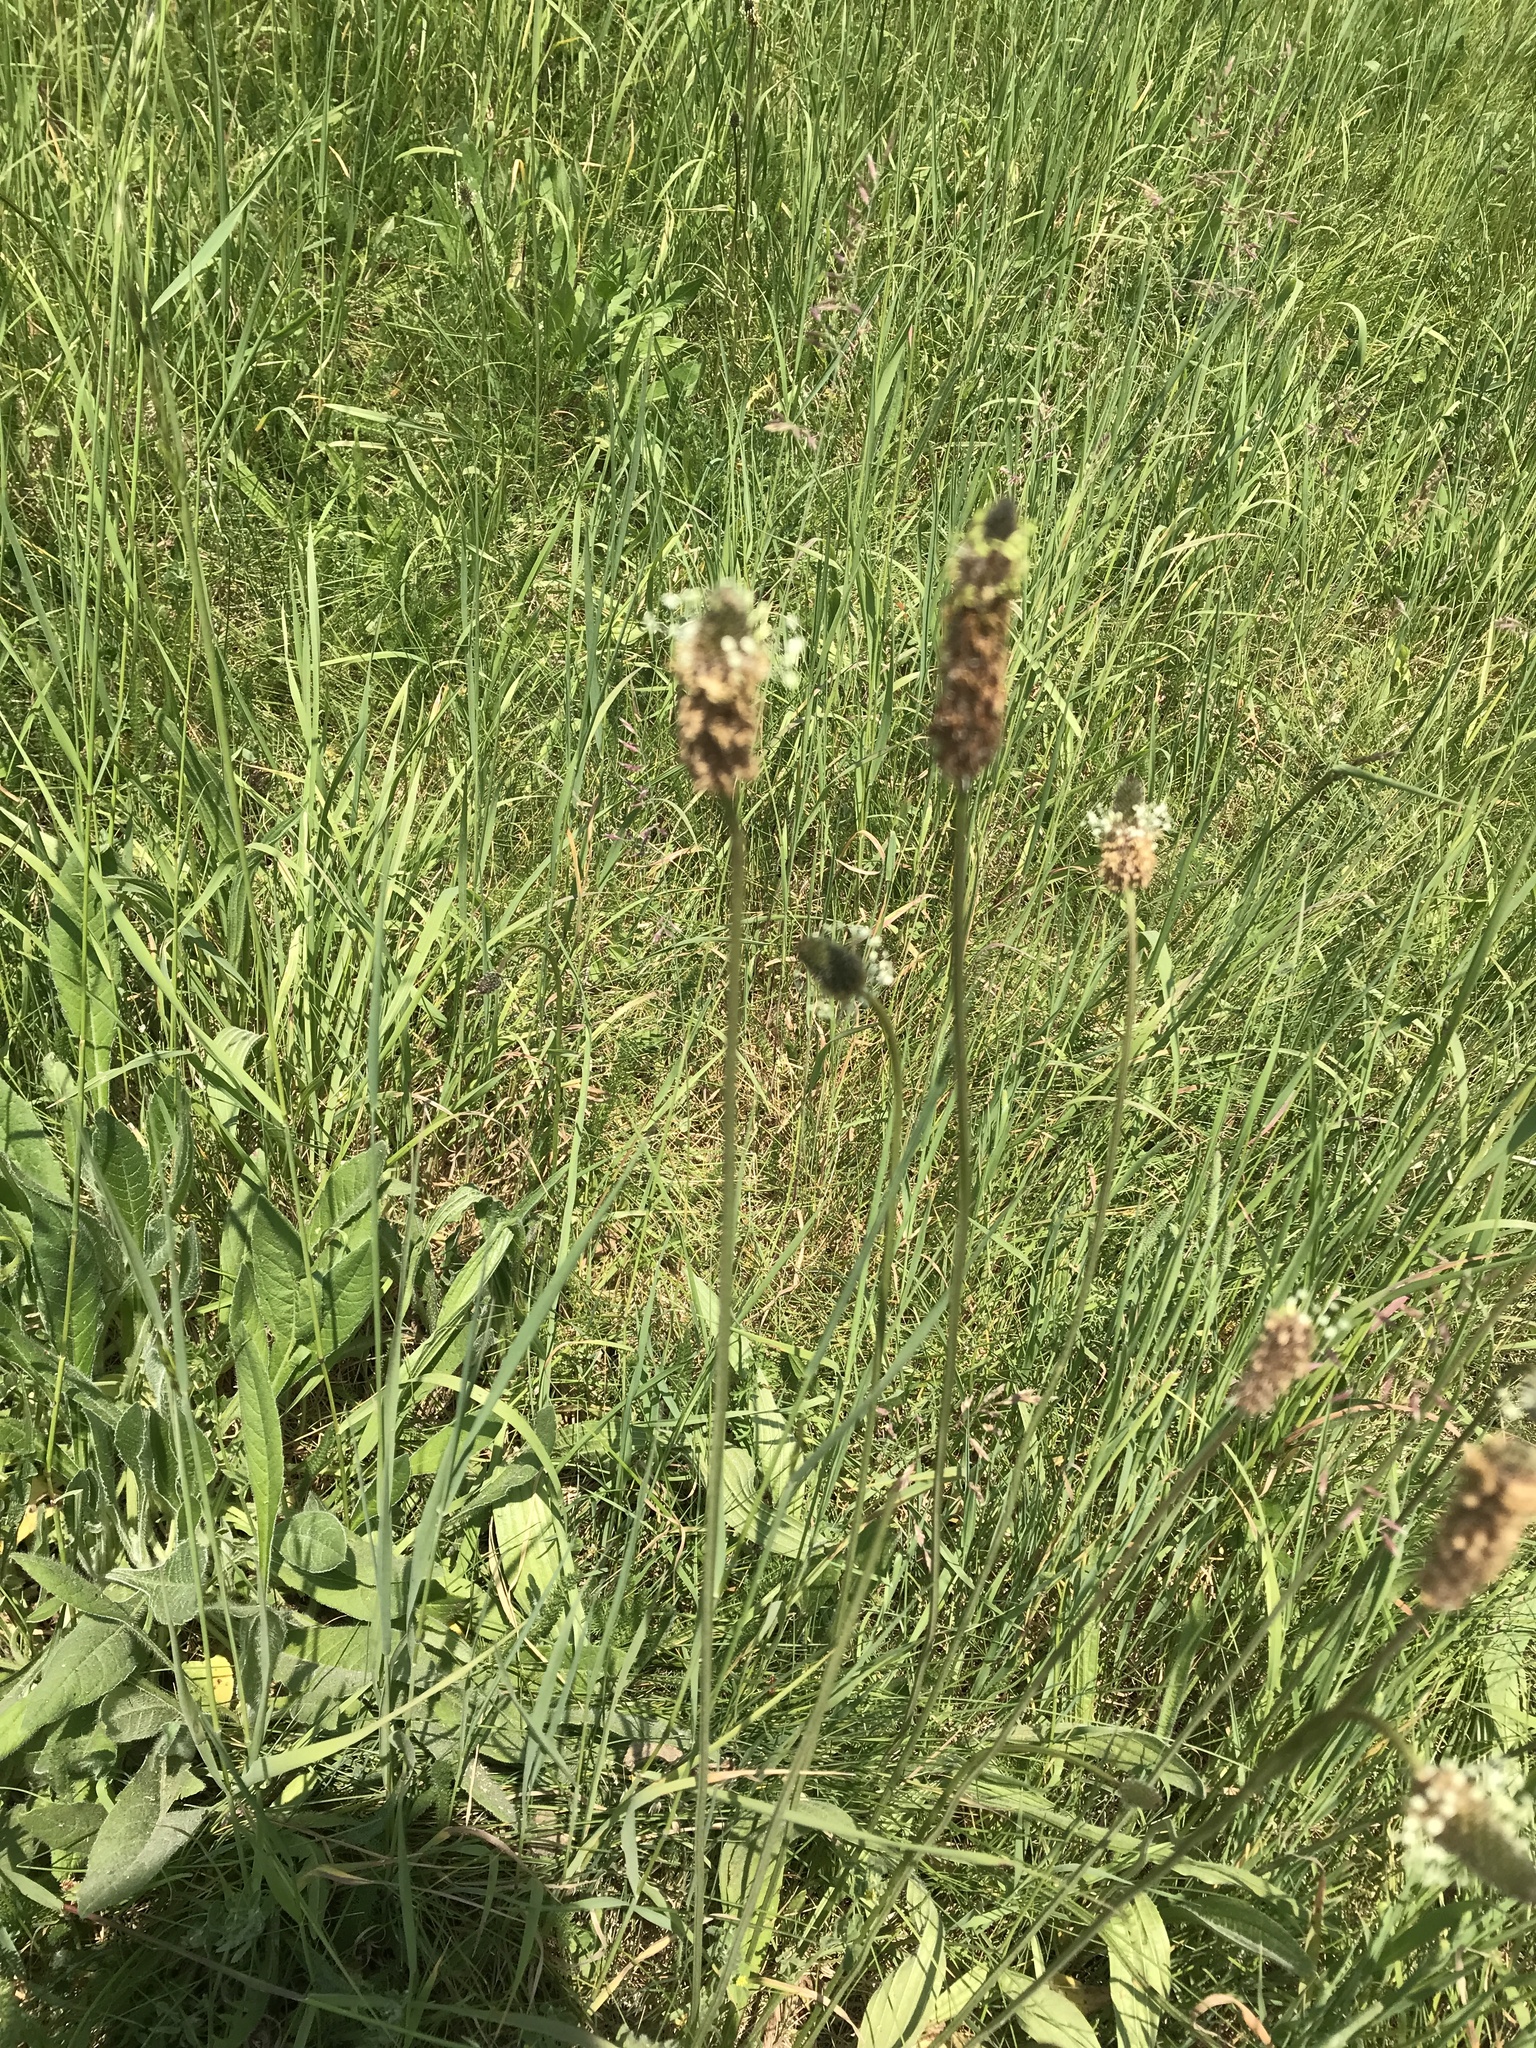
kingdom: Plantae
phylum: Tracheophyta
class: Magnoliopsida
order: Lamiales
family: Plantaginaceae
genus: Plantago
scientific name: Plantago lanceolata
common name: Ribwort plantain
